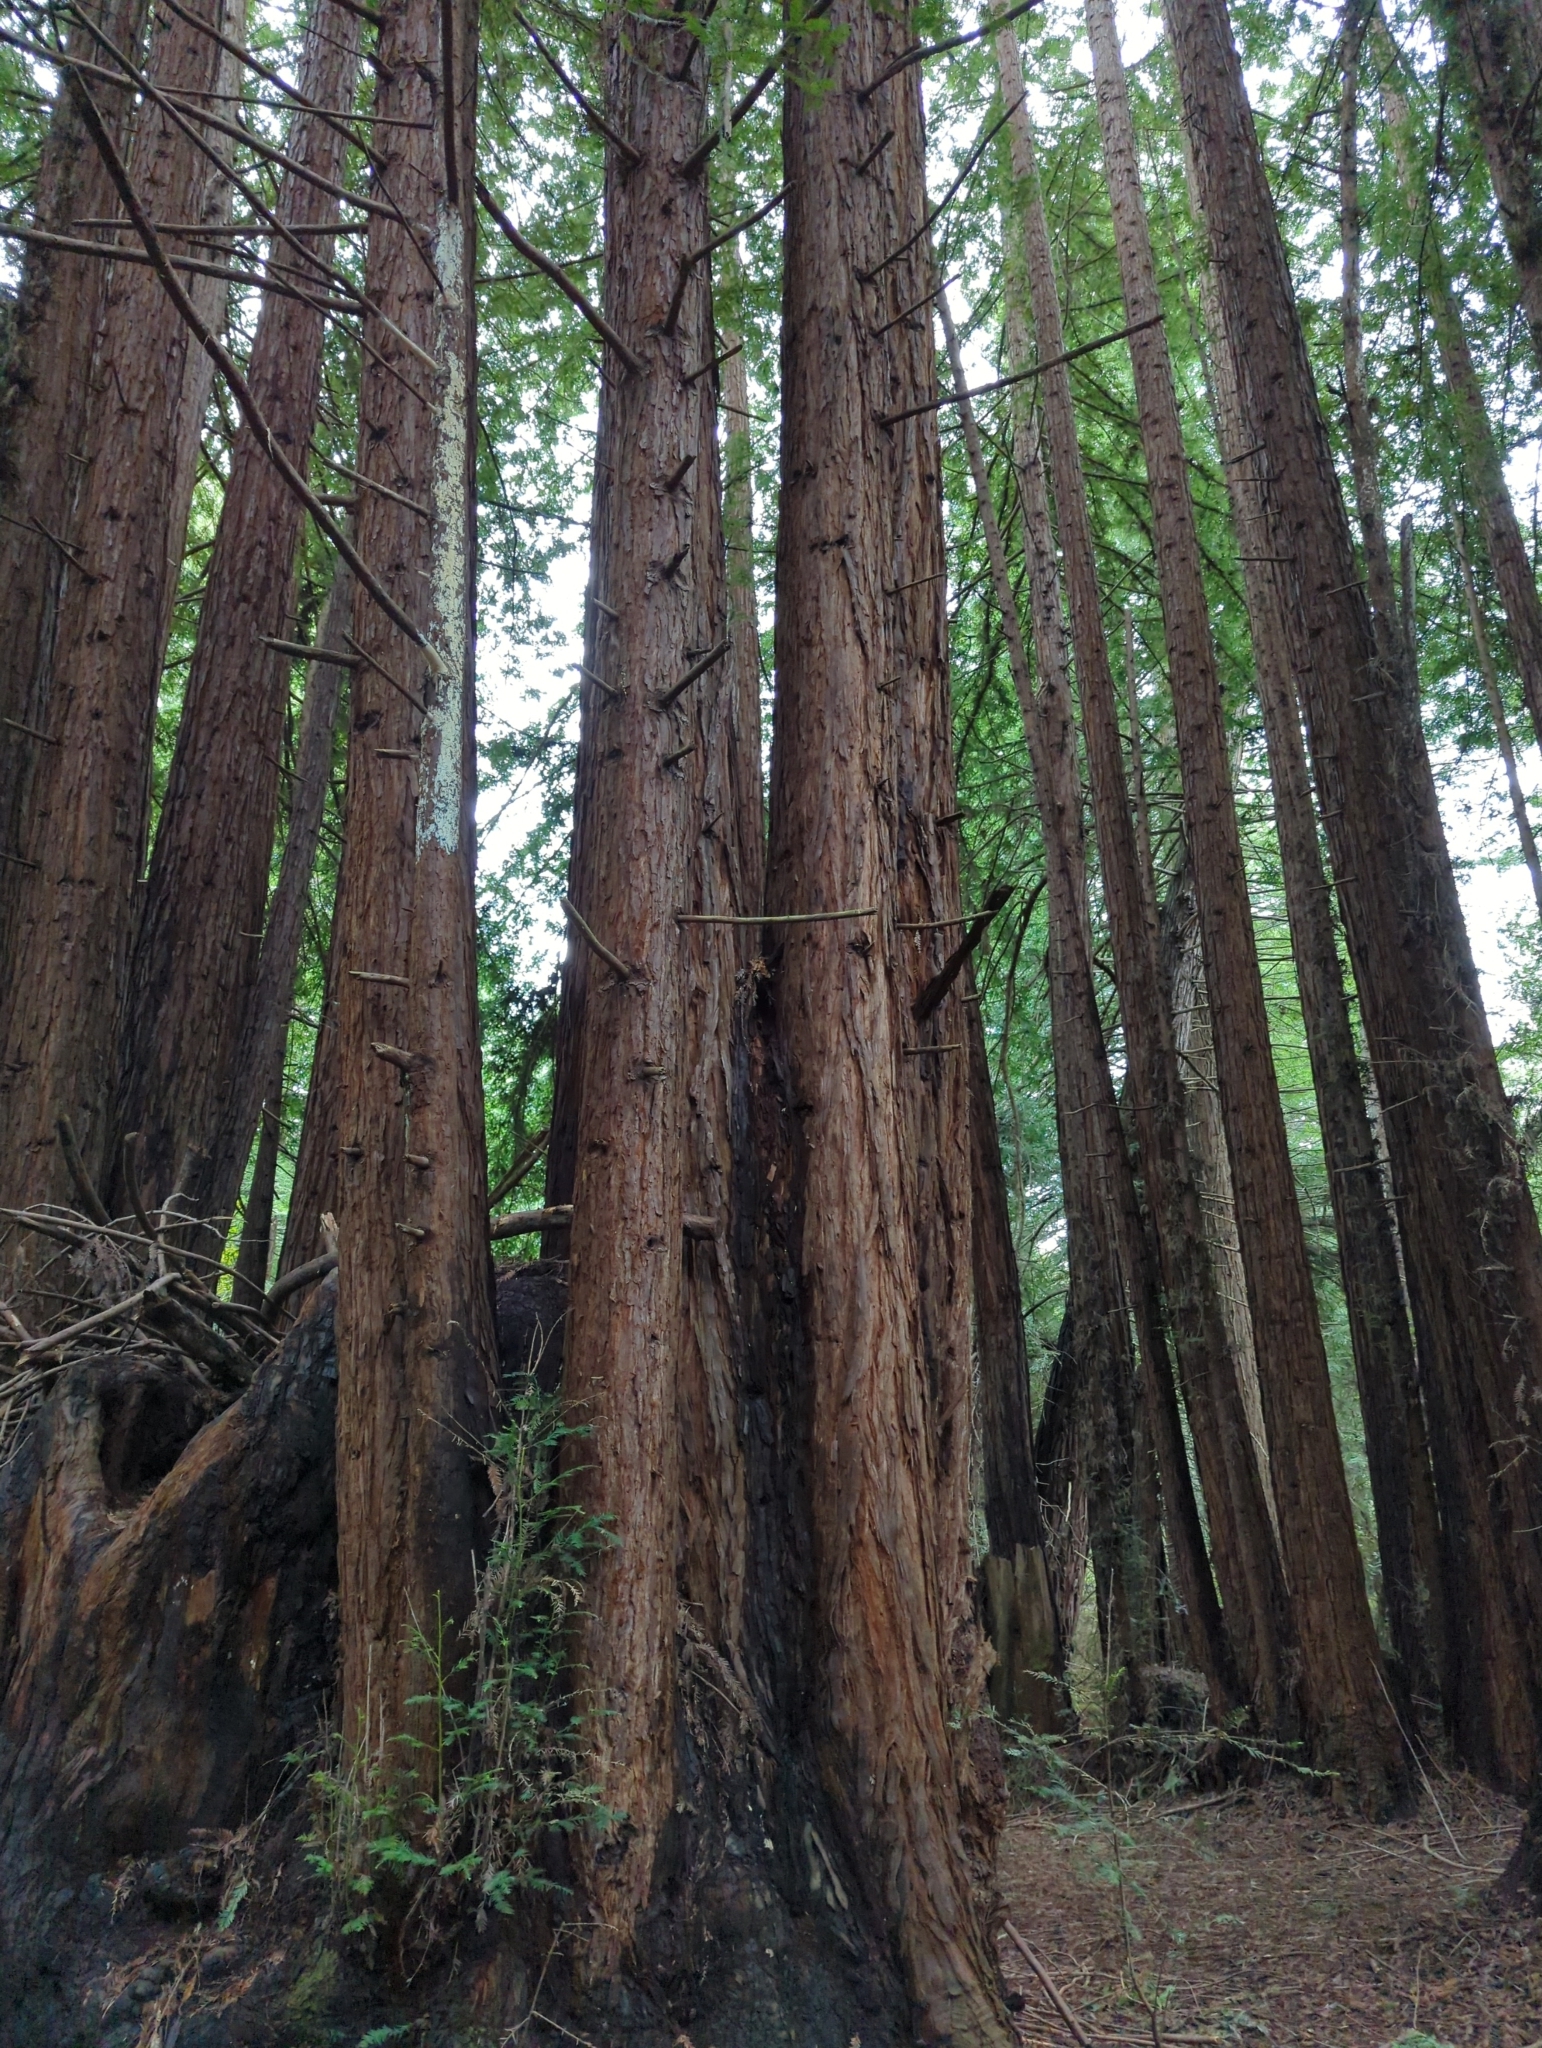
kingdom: Plantae
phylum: Tracheophyta
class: Pinopsida
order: Pinales
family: Cupressaceae
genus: Sequoia
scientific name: Sequoia sempervirens
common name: Coast redwood
